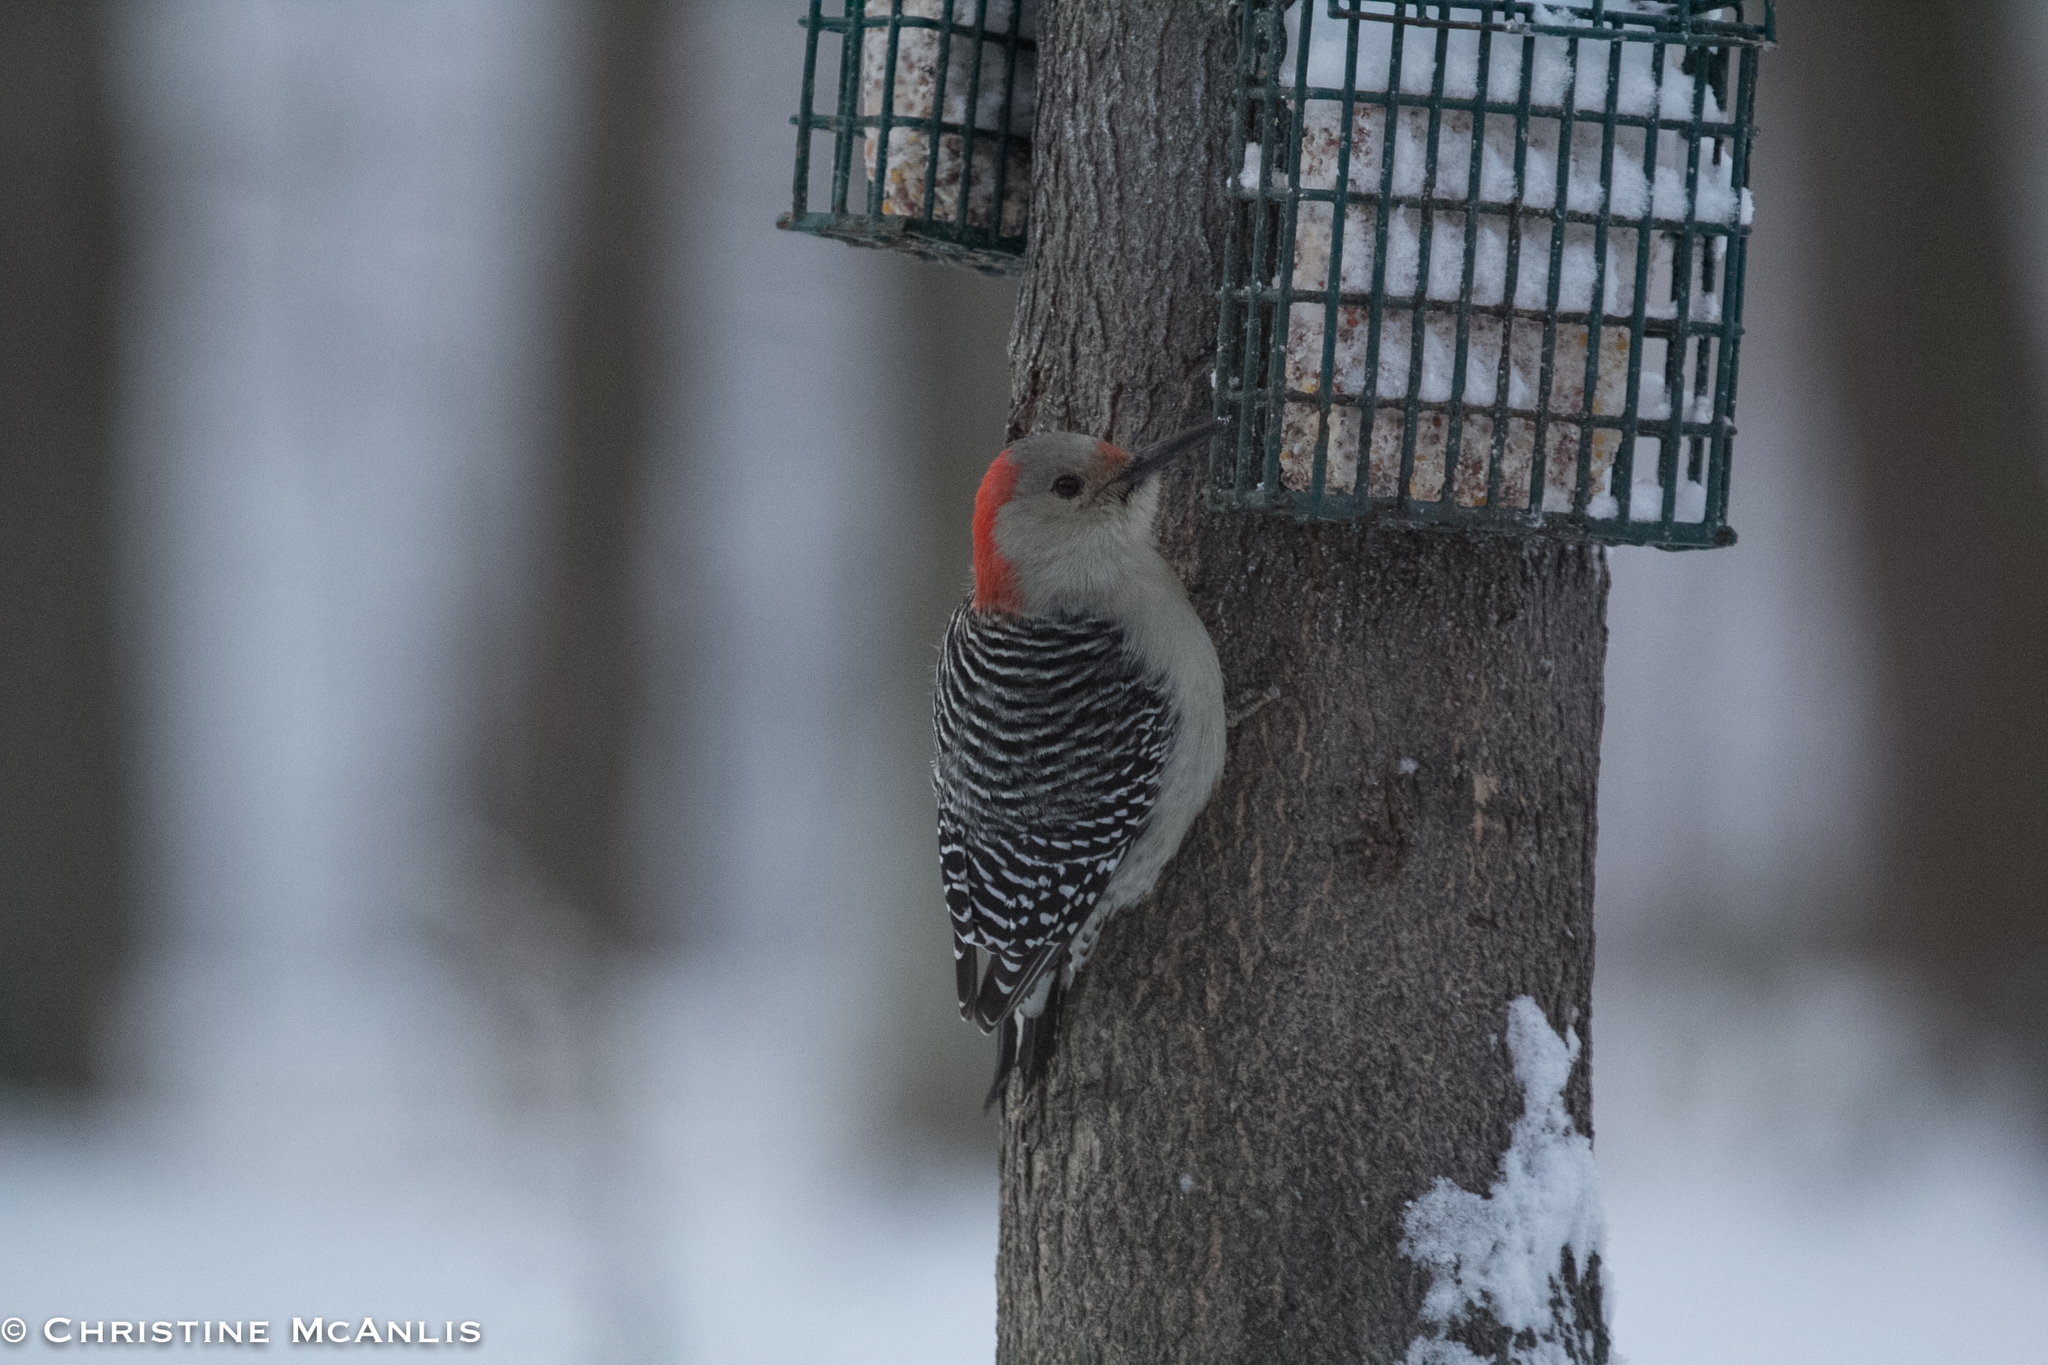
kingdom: Animalia
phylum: Chordata
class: Aves
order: Piciformes
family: Picidae
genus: Melanerpes
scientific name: Melanerpes carolinus
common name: Red-bellied woodpecker
